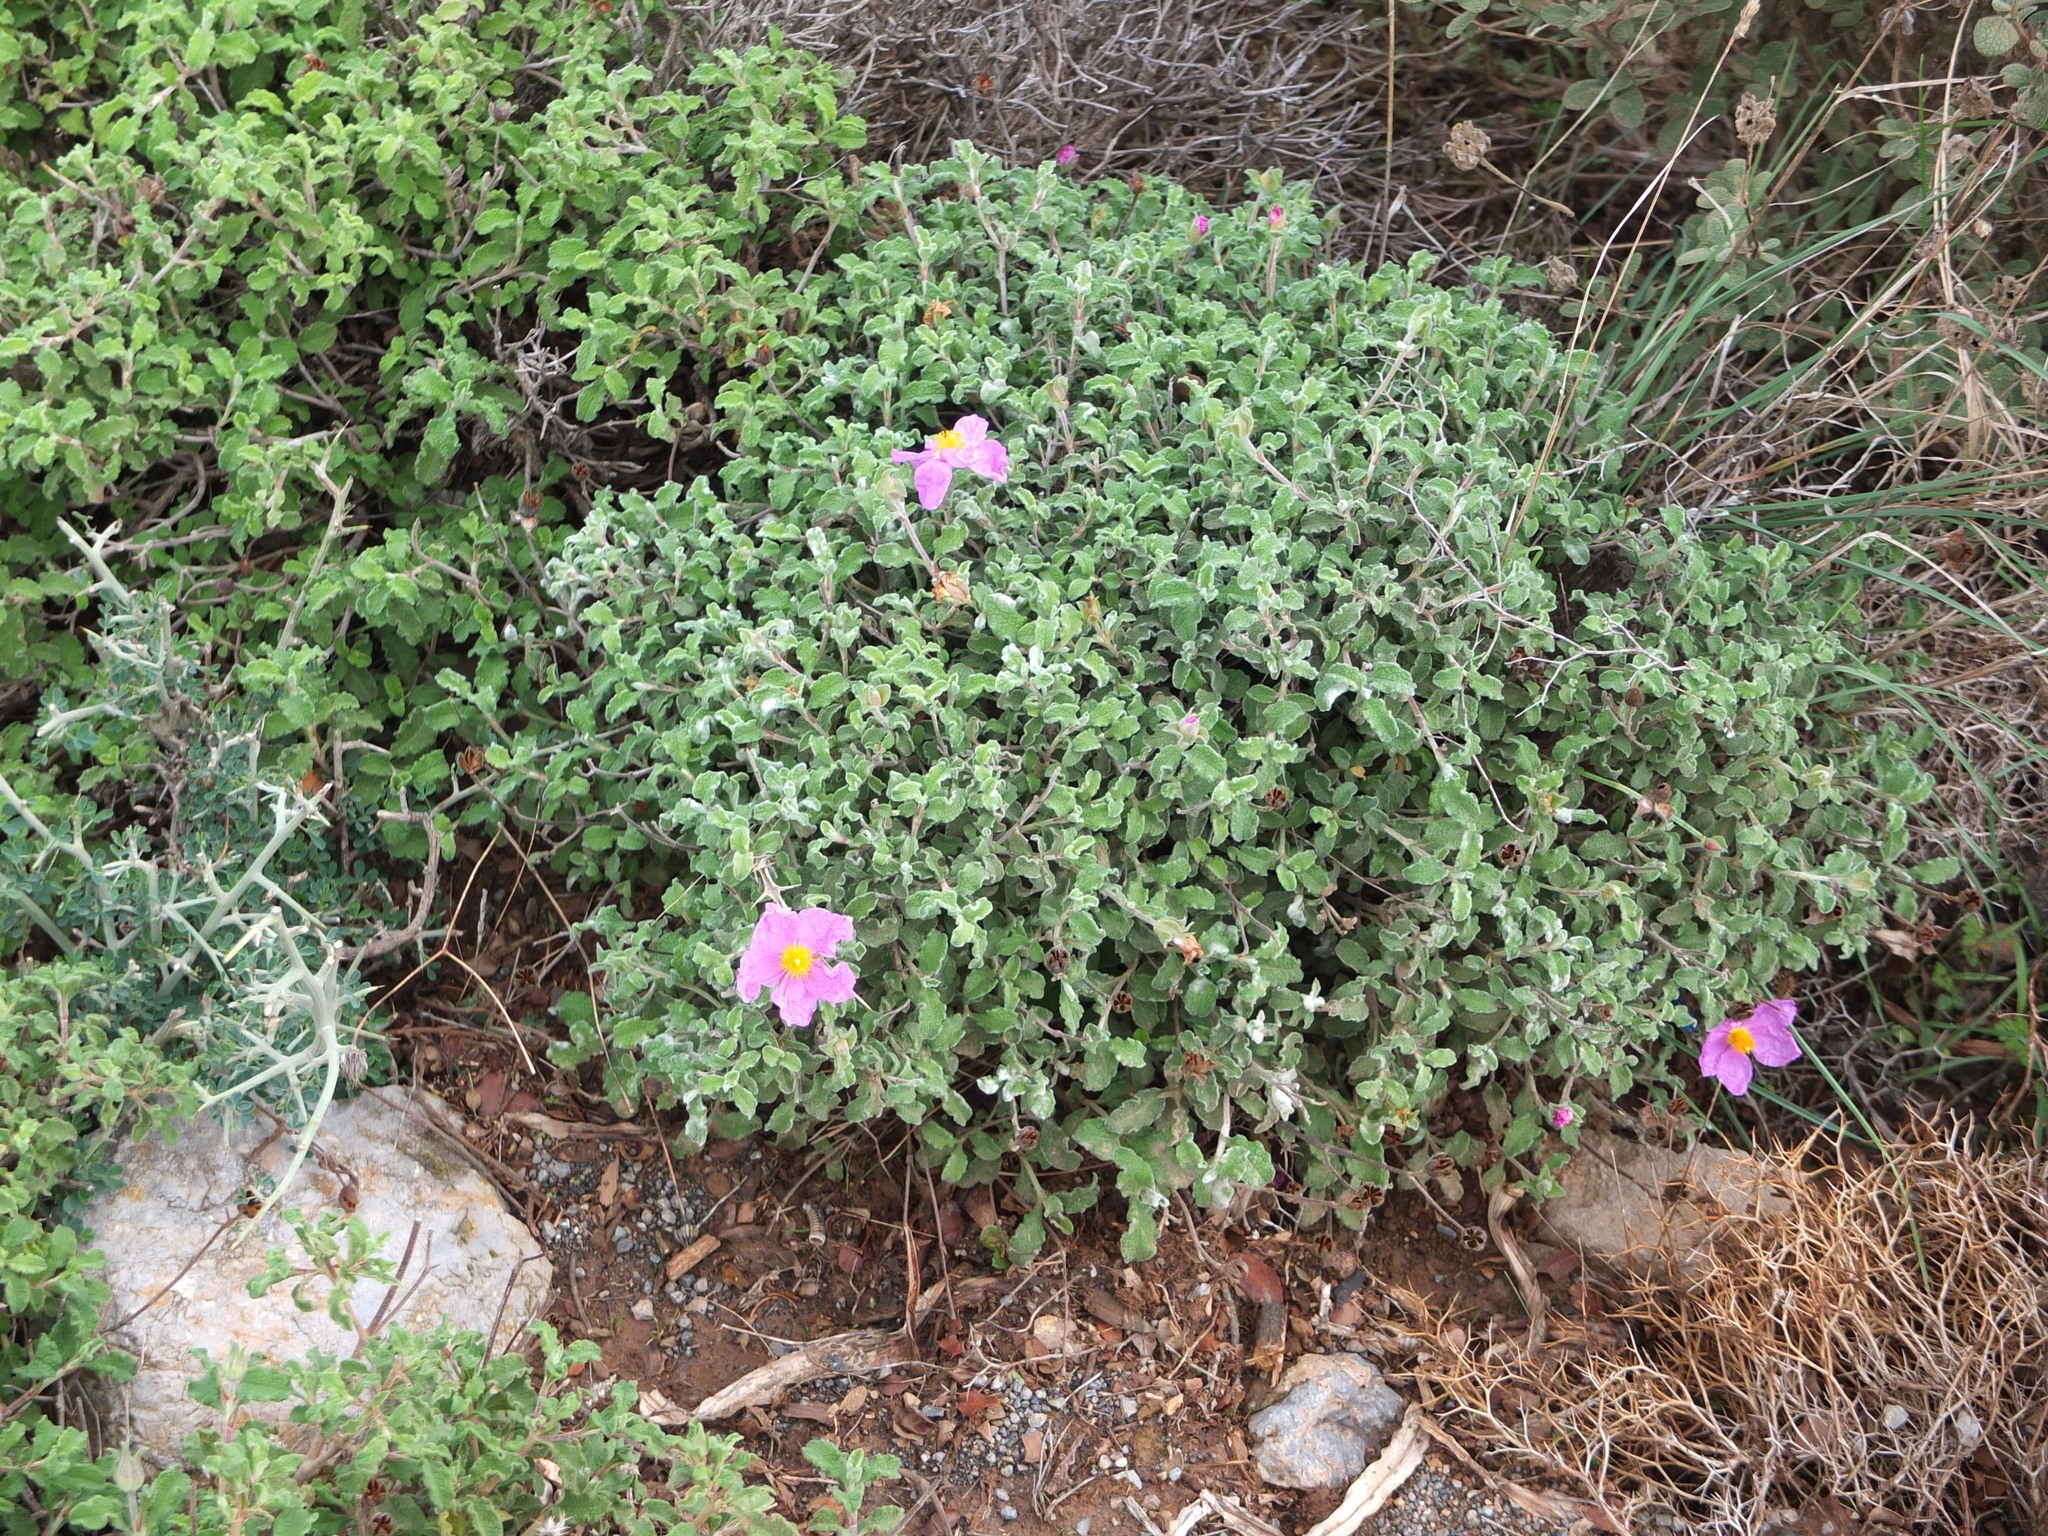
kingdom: Plantae
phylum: Tracheophyta
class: Magnoliopsida
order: Malvales
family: Cistaceae
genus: Cistus
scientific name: Cistus creticus
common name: Cretan rockrose
